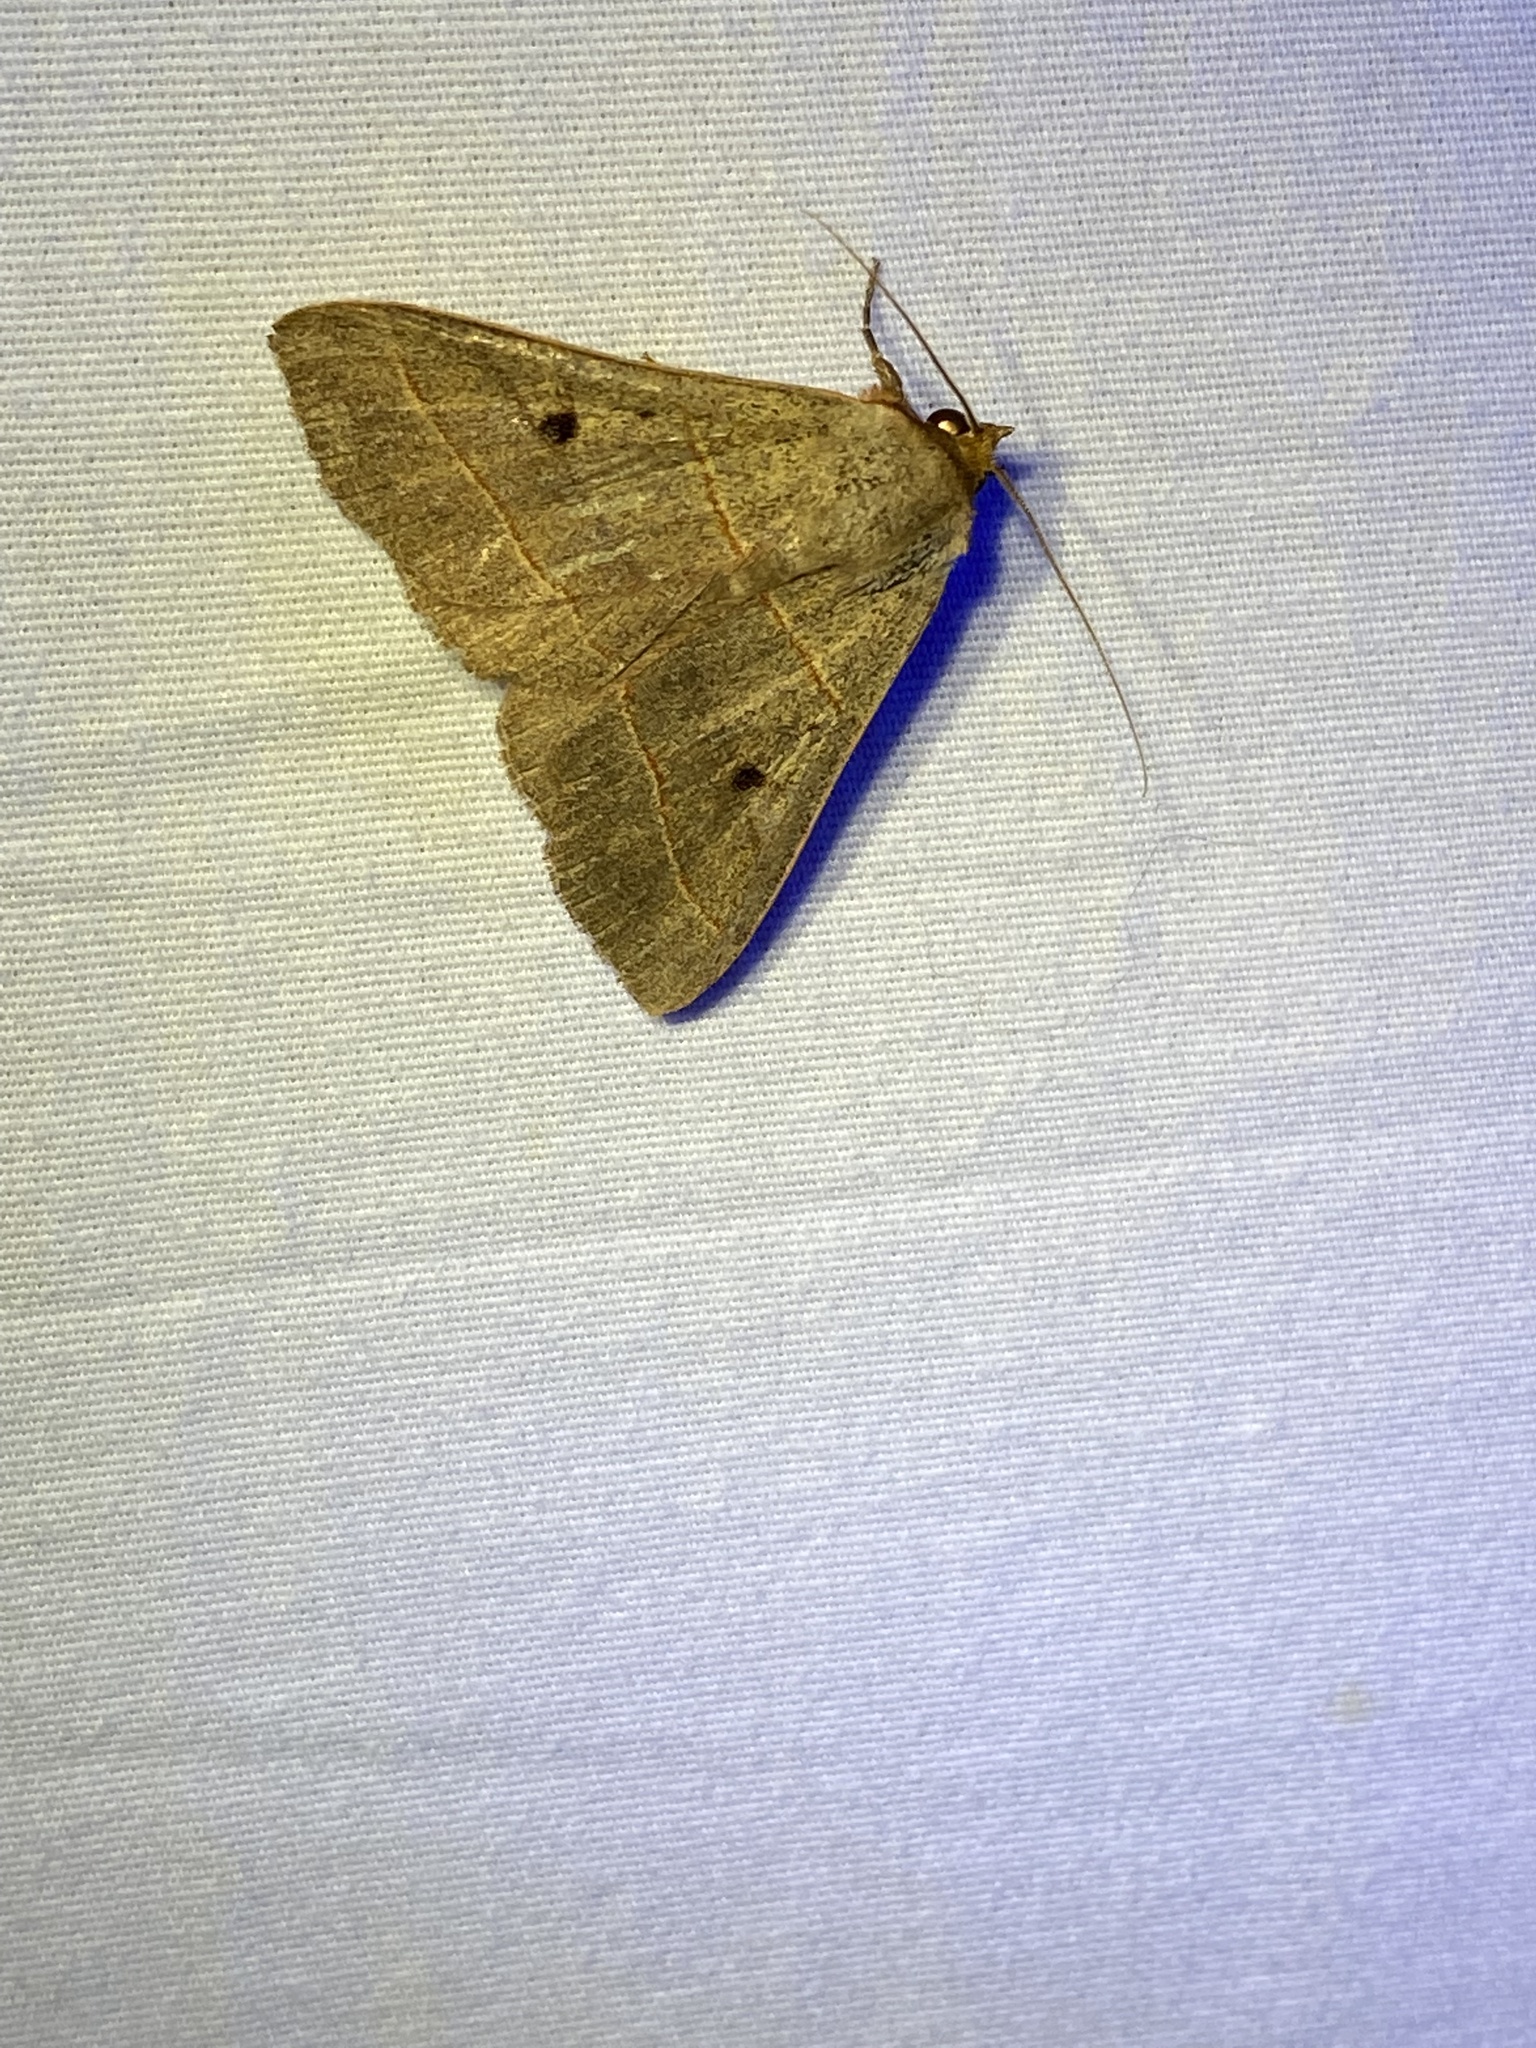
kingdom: Animalia
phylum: Arthropoda
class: Insecta
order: Lepidoptera
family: Erebidae
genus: Panopoda
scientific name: Panopoda rufimargo
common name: Red-lined panopoda moth
